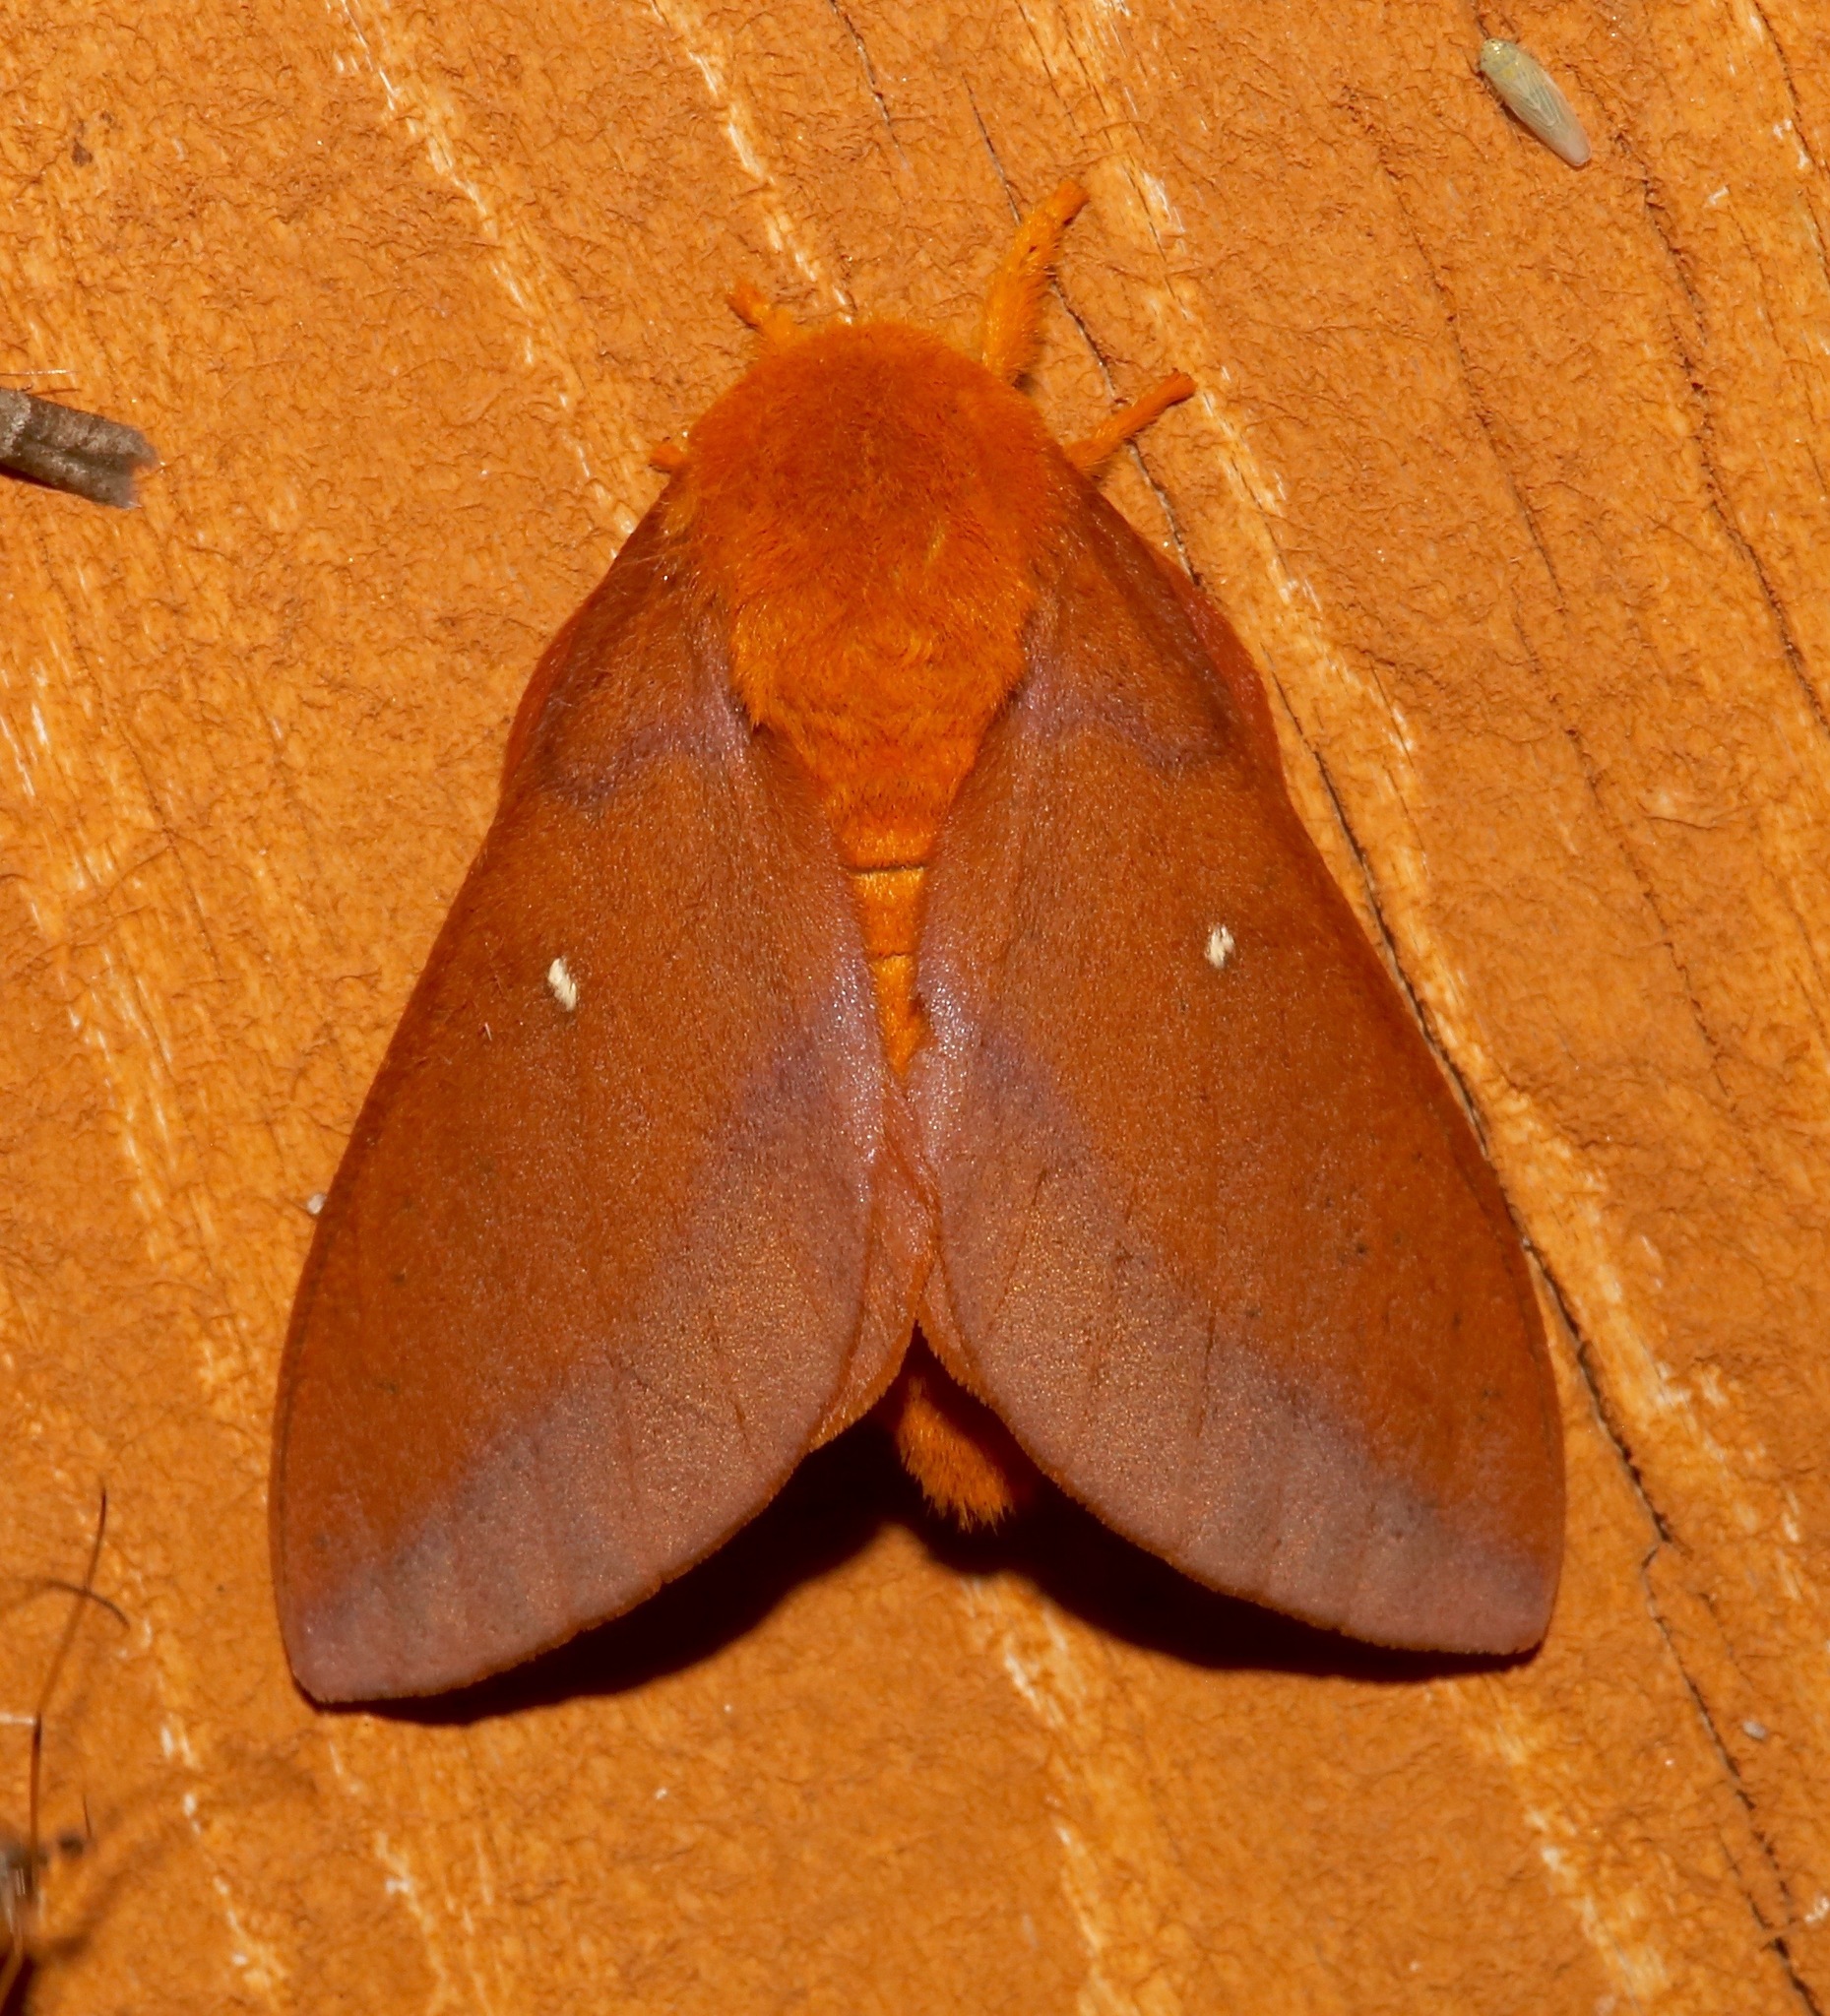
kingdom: Animalia
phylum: Arthropoda
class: Insecta
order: Lepidoptera
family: Saturniidae
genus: Anisota
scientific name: Anisota virginiensis
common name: Pink striped oakworm moth
